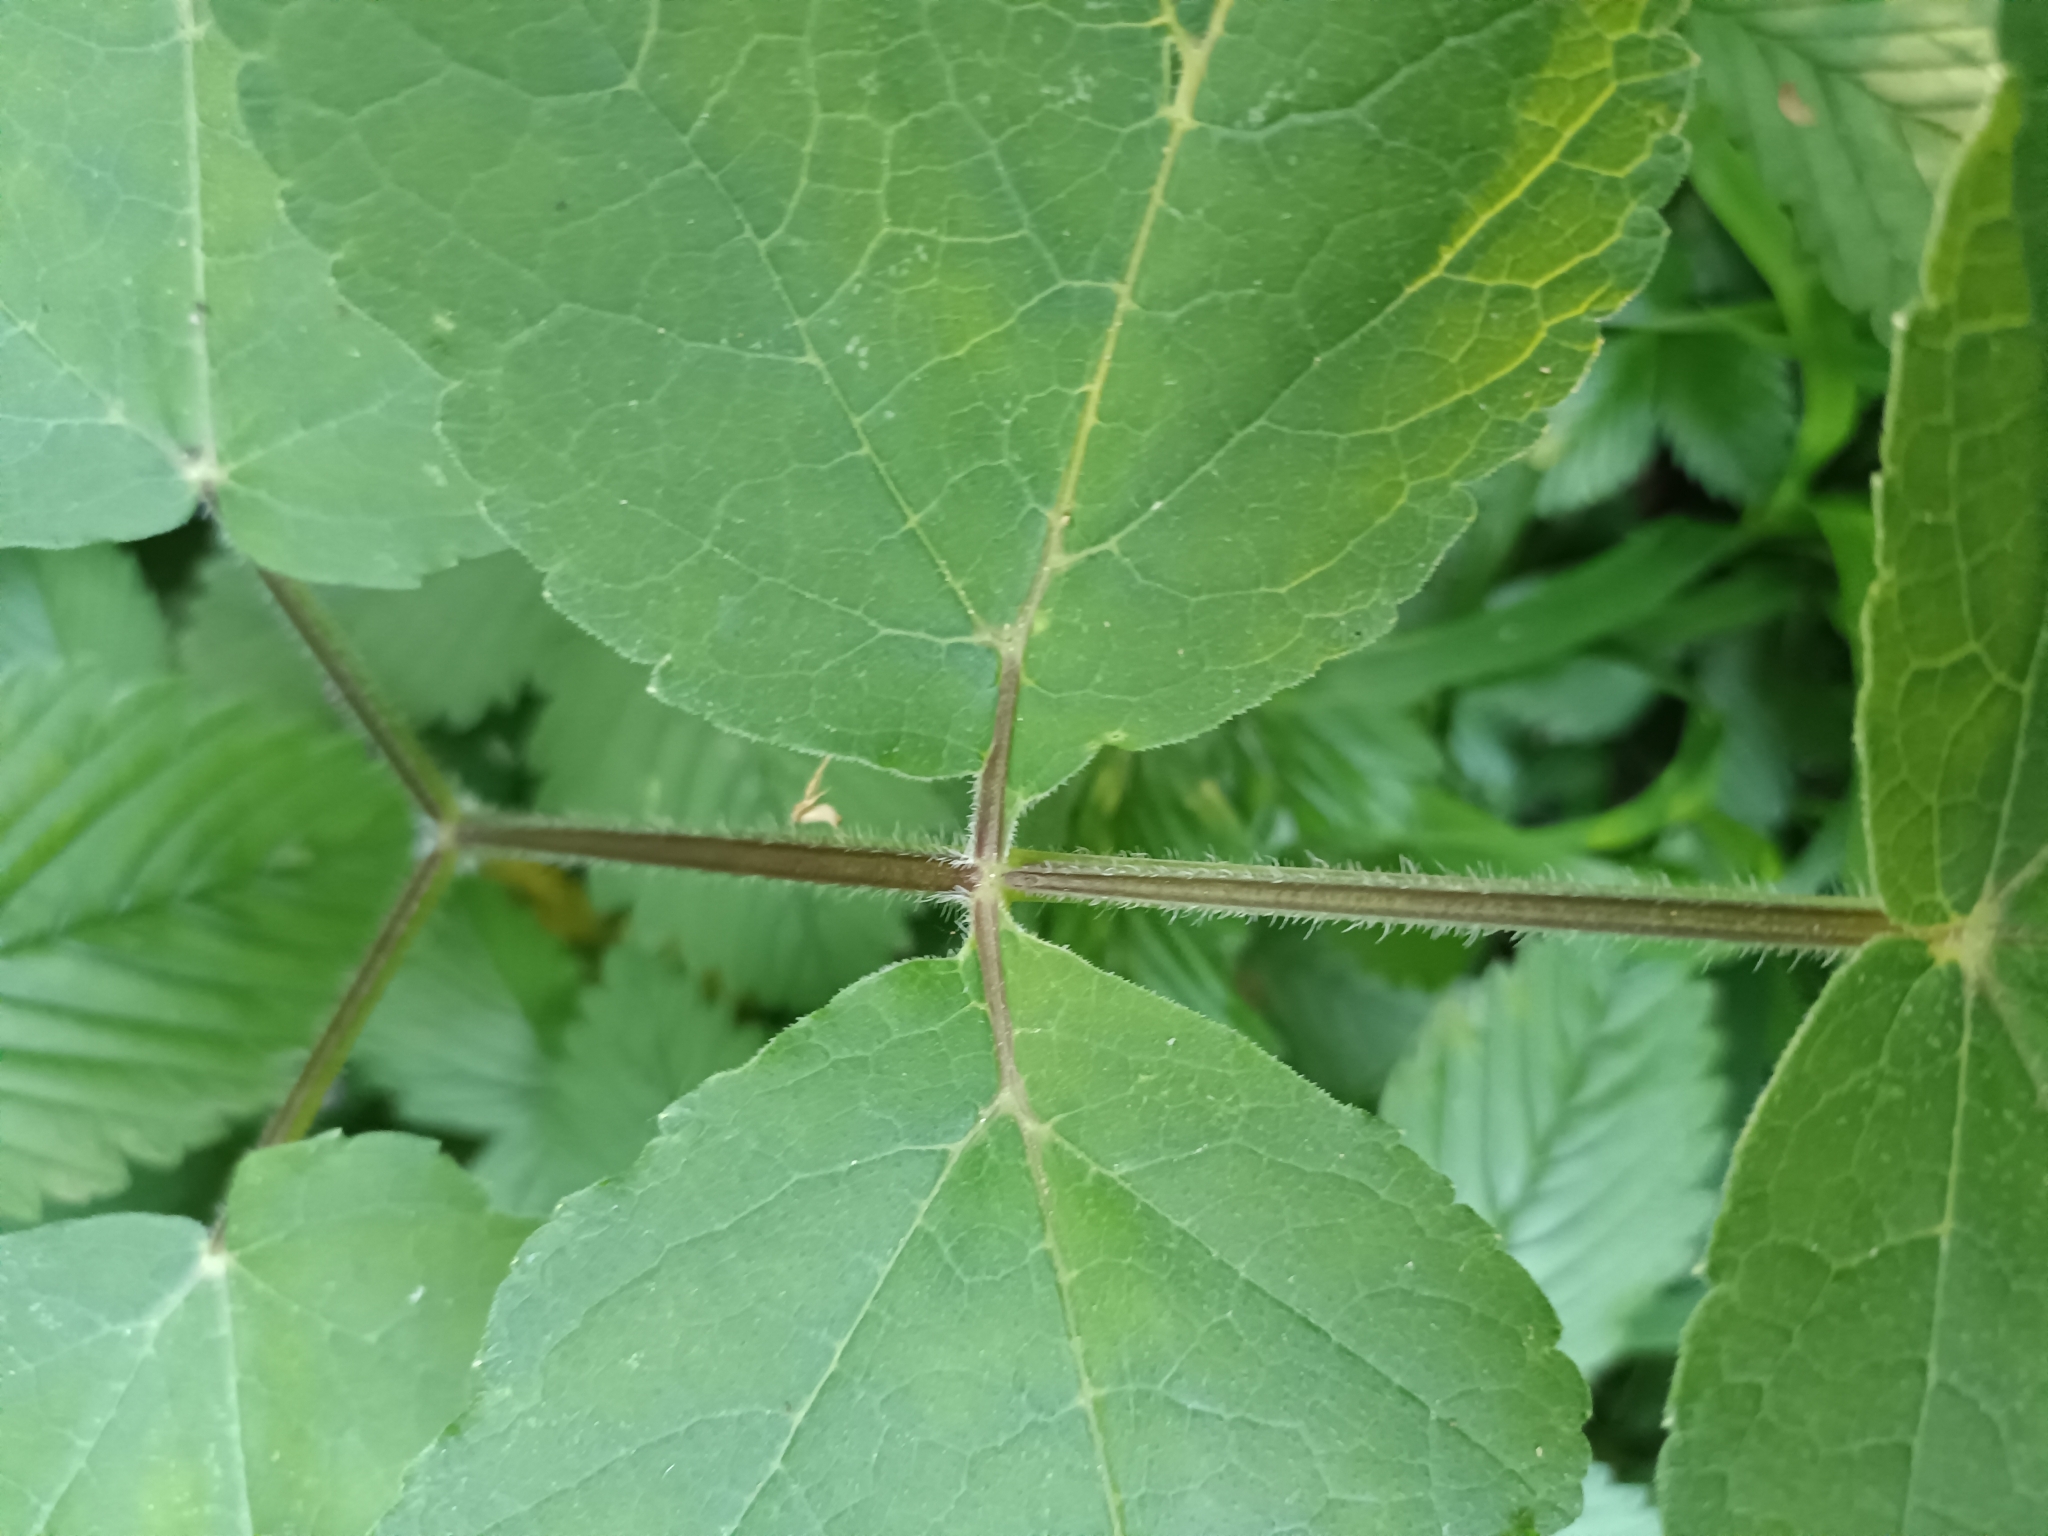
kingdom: Plantae
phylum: Tracheophyta
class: Magnoliopsida
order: Apiales
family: Apiaceae
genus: Heracleum
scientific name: Heracleum sphondylium
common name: Hogweed
